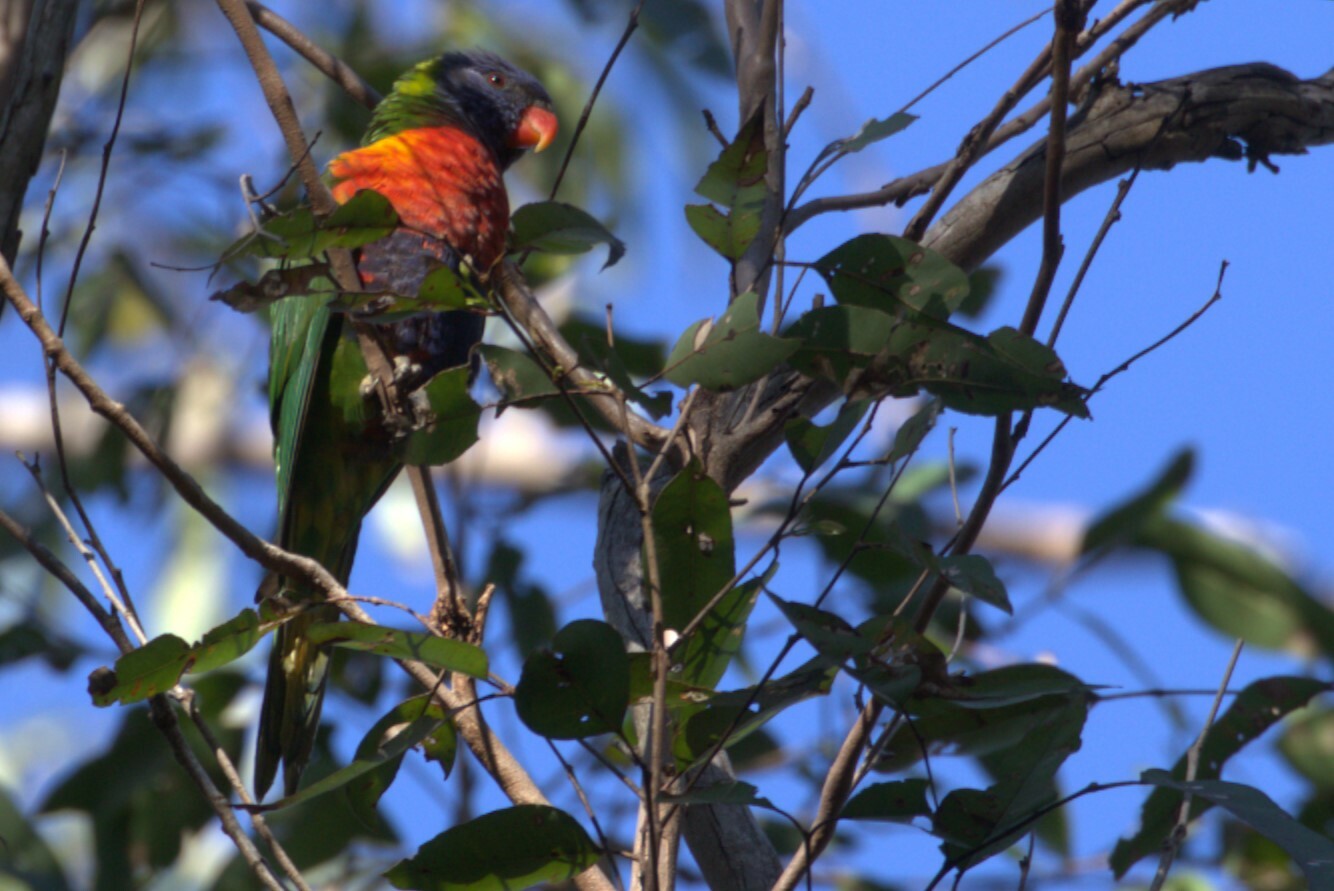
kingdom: Animalia
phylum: Chordata
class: Aves
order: Psittaciformes
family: Psittacidae
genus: Trichoglossus
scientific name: Trichoglossus haematodus
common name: Coconut lorikeet
